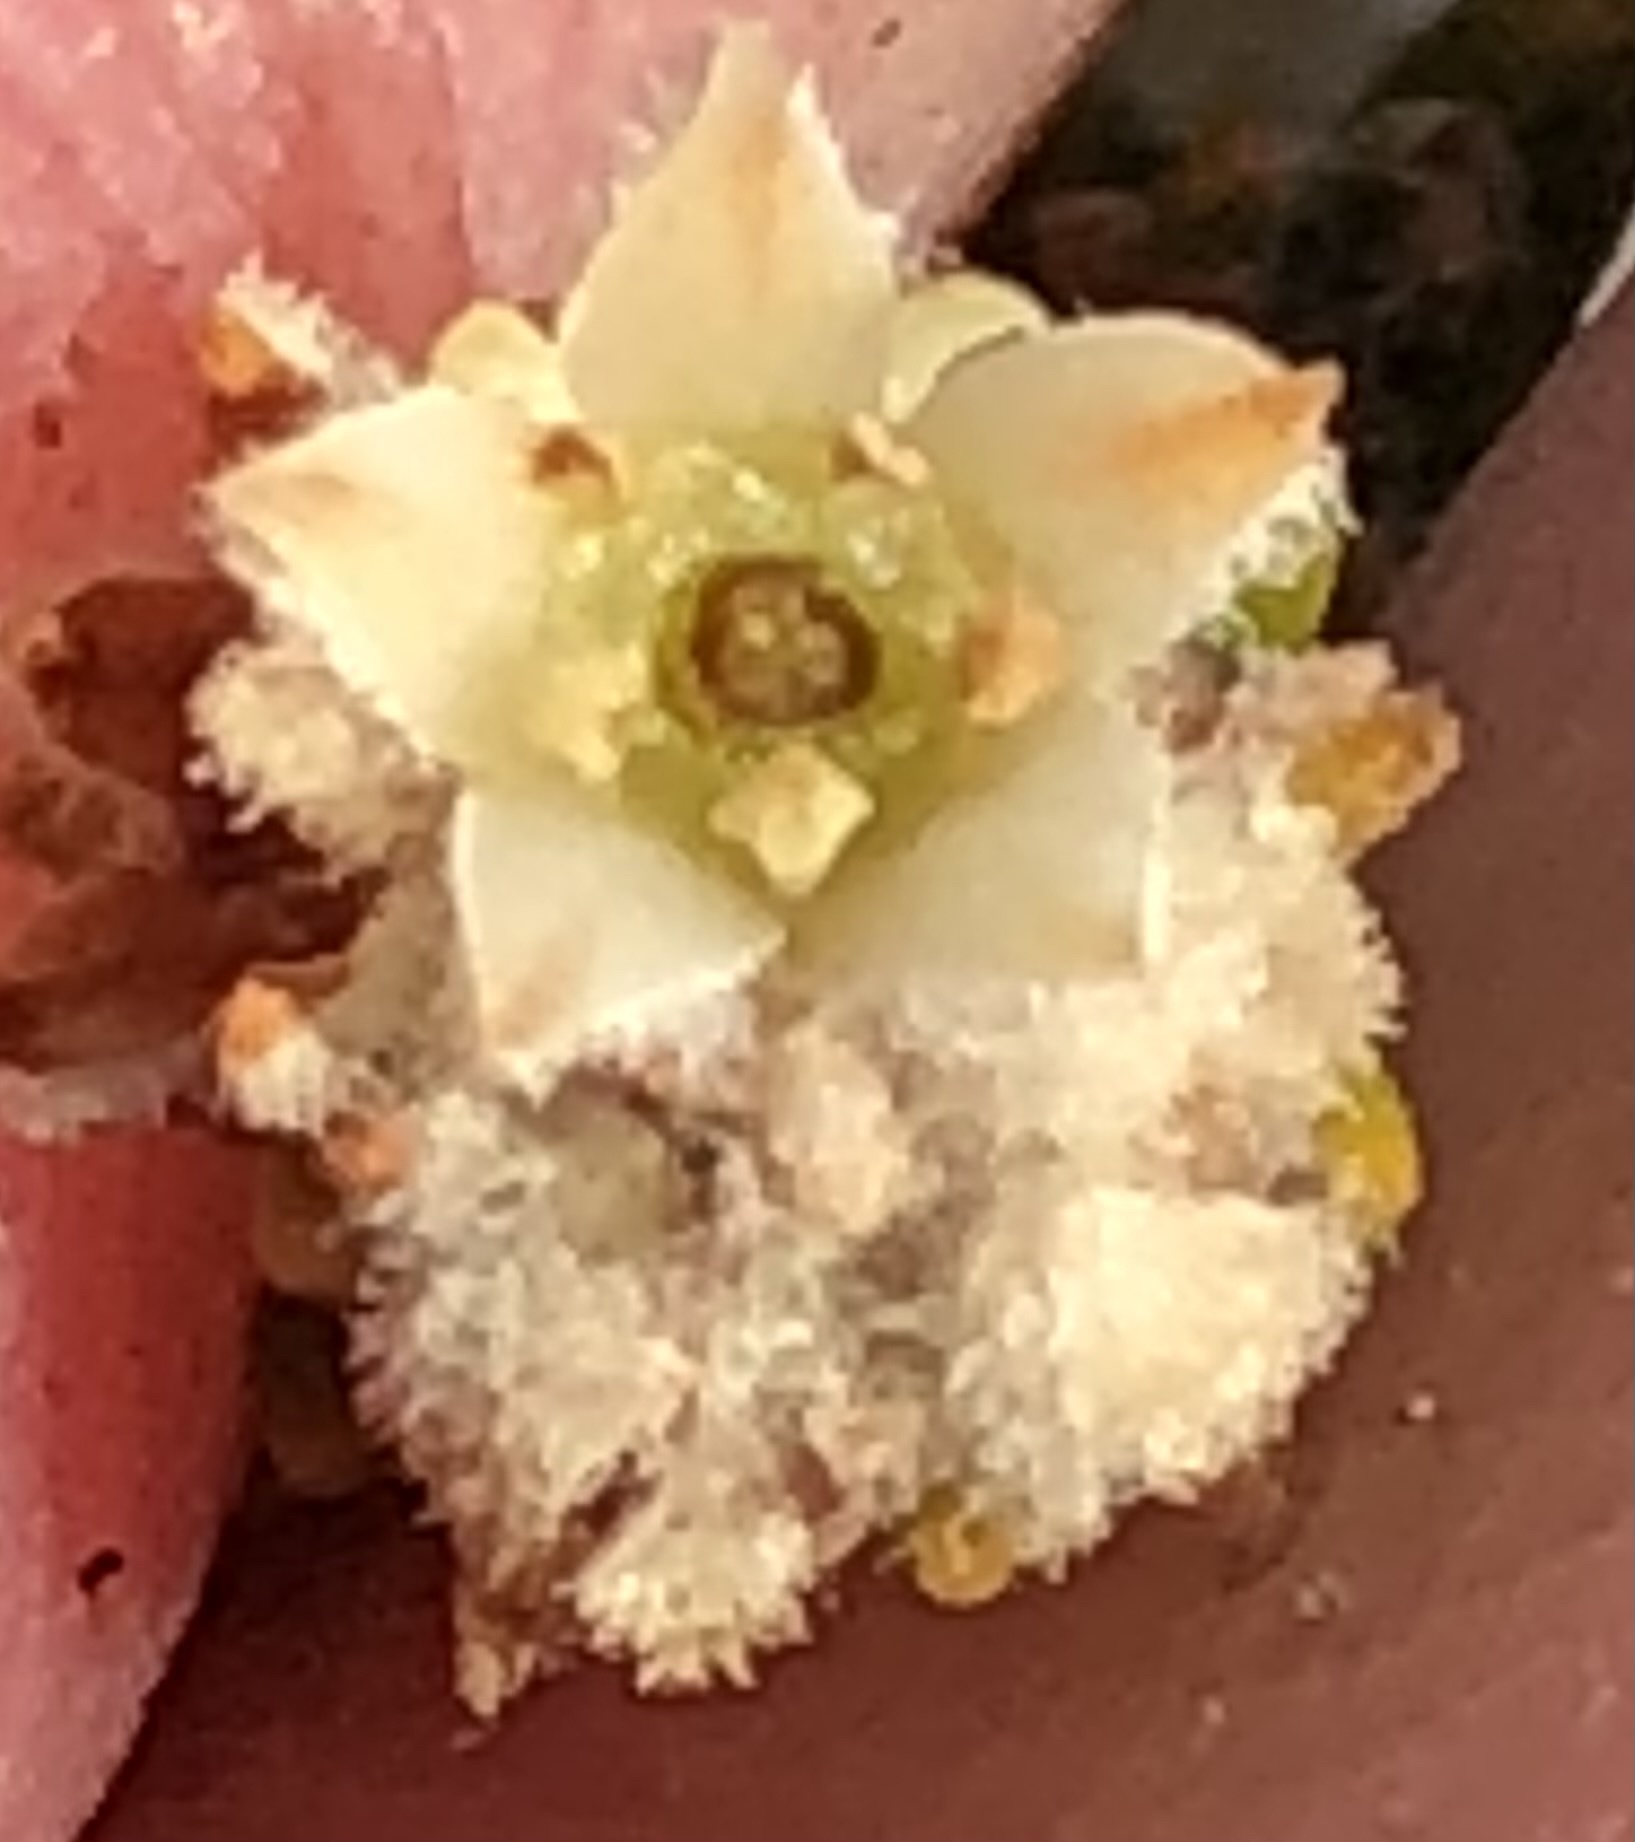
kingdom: Plantae
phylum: Tracheophyta
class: Magnoliopsida
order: Rosales
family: Rhamnaceae
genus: Phylica
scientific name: Phylica incurvata
